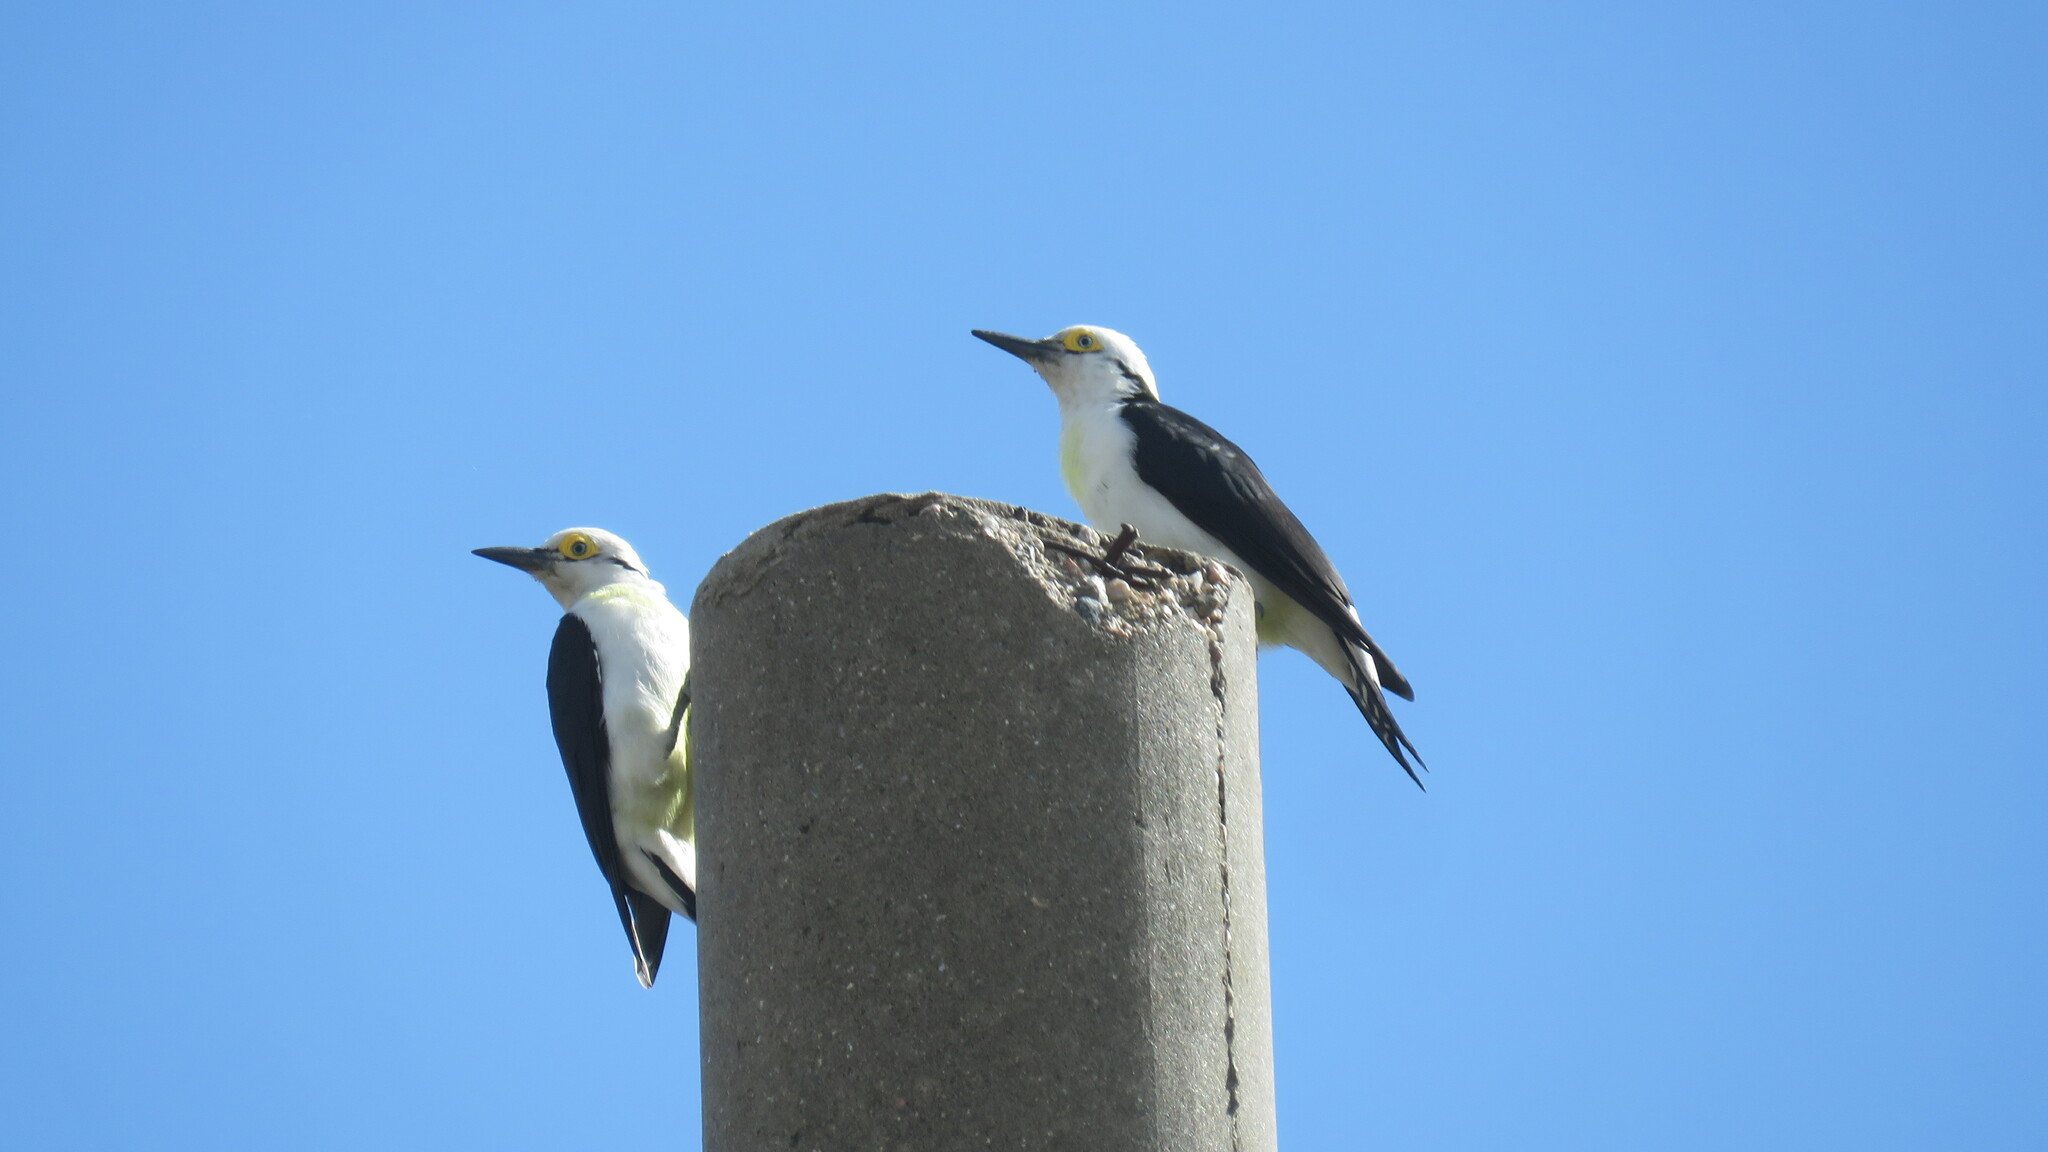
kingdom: Animalia
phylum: Chordata
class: Aves
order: Piciformes
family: Picidae
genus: Melanerpes
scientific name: Melanerpes candidus
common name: White woodpecker
